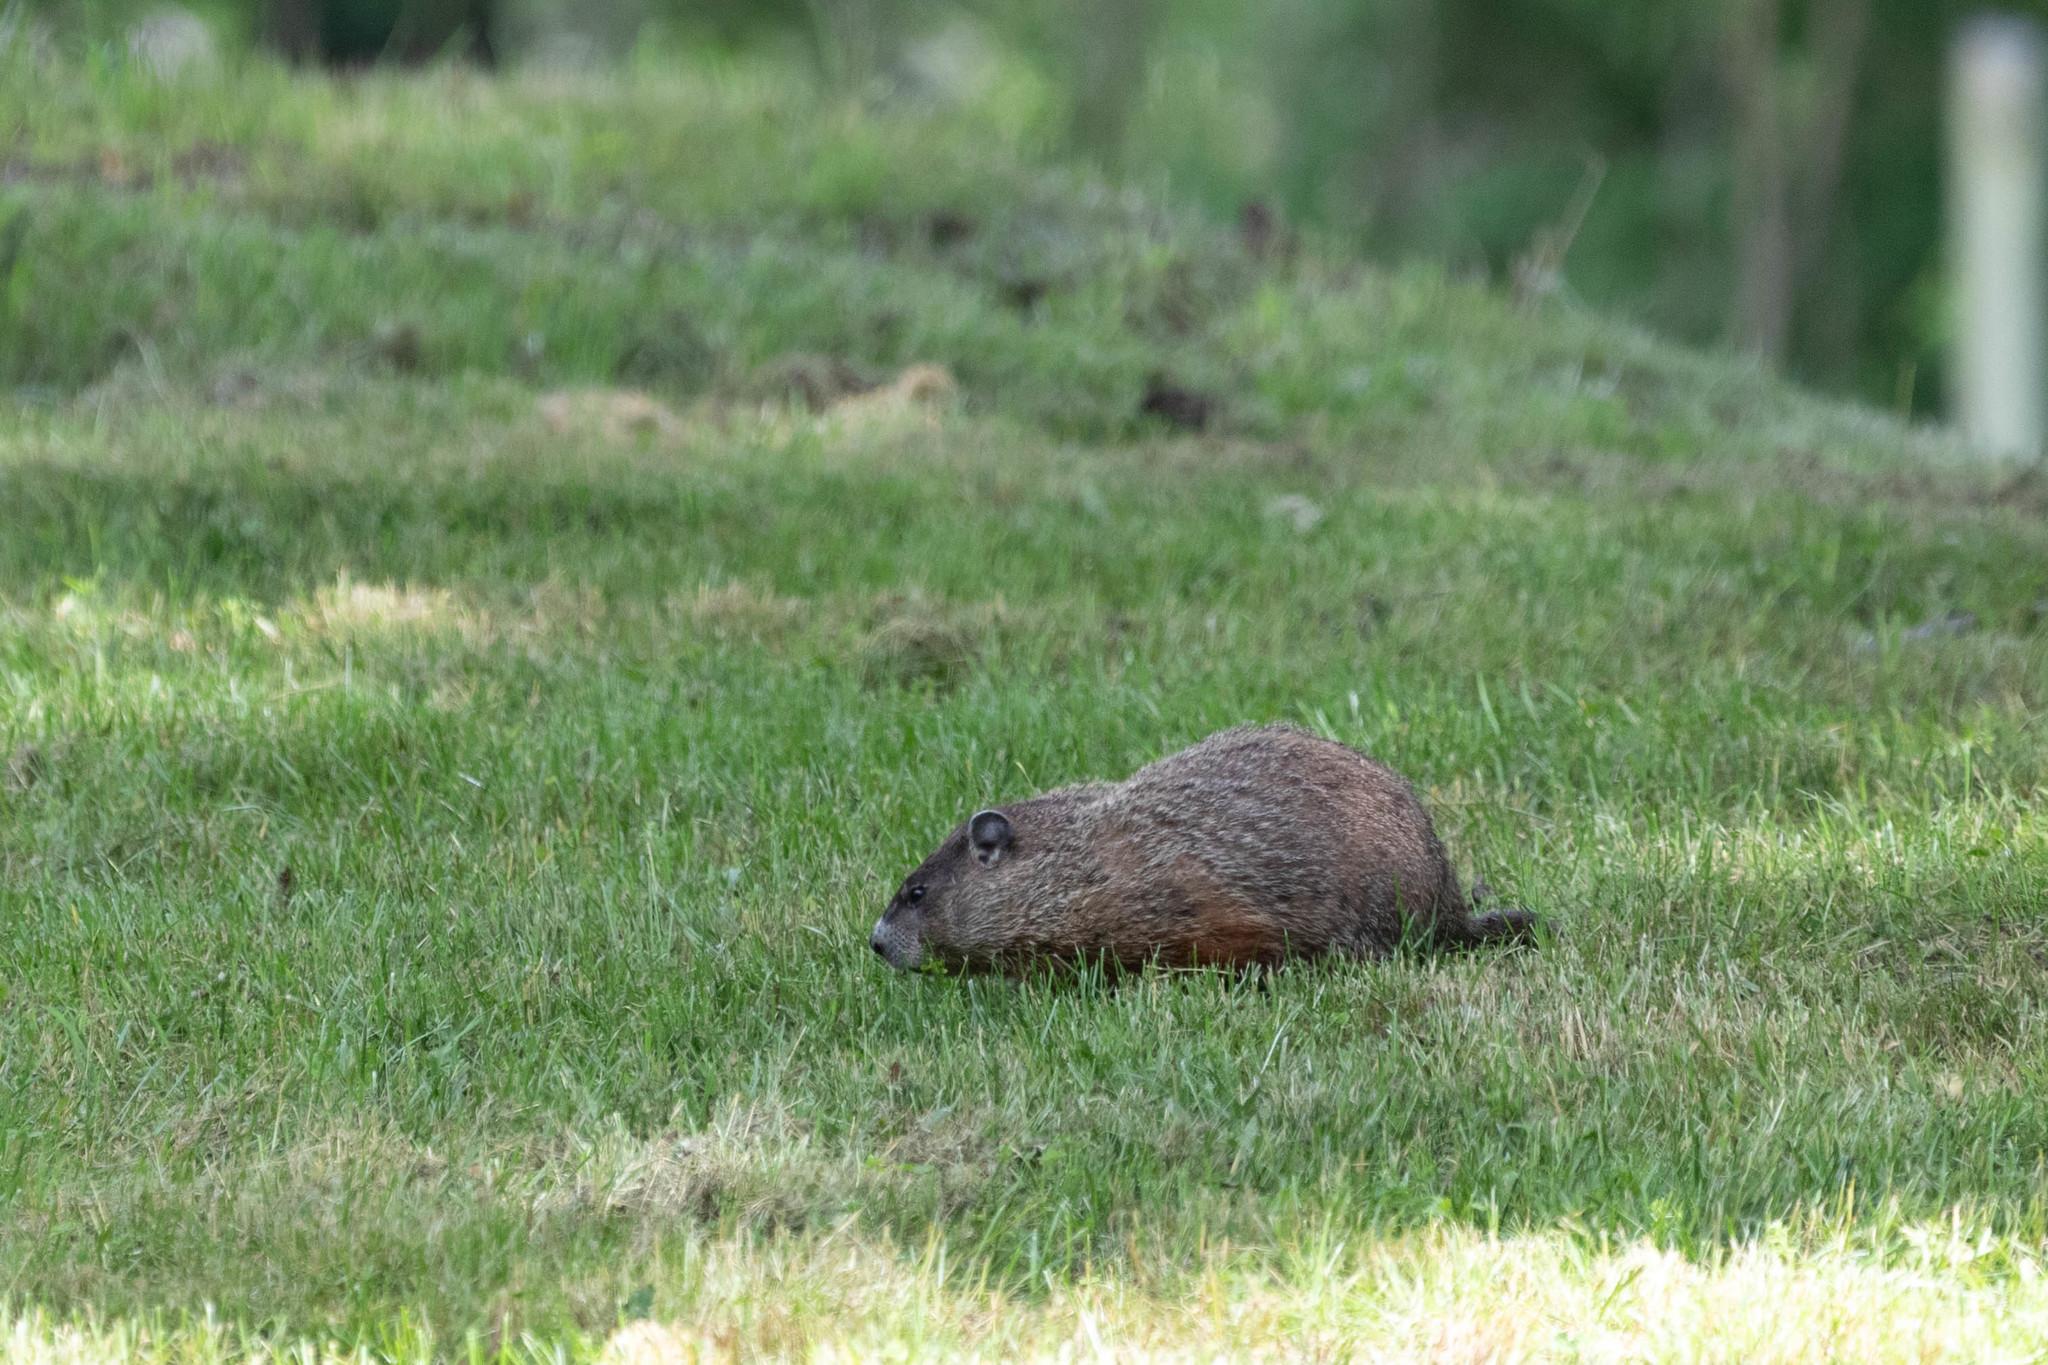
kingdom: Animalia
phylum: Chordata
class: Mammalia
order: Rodentia
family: Sciuridae
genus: Marmota
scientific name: Marmota monax
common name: Groundhog
